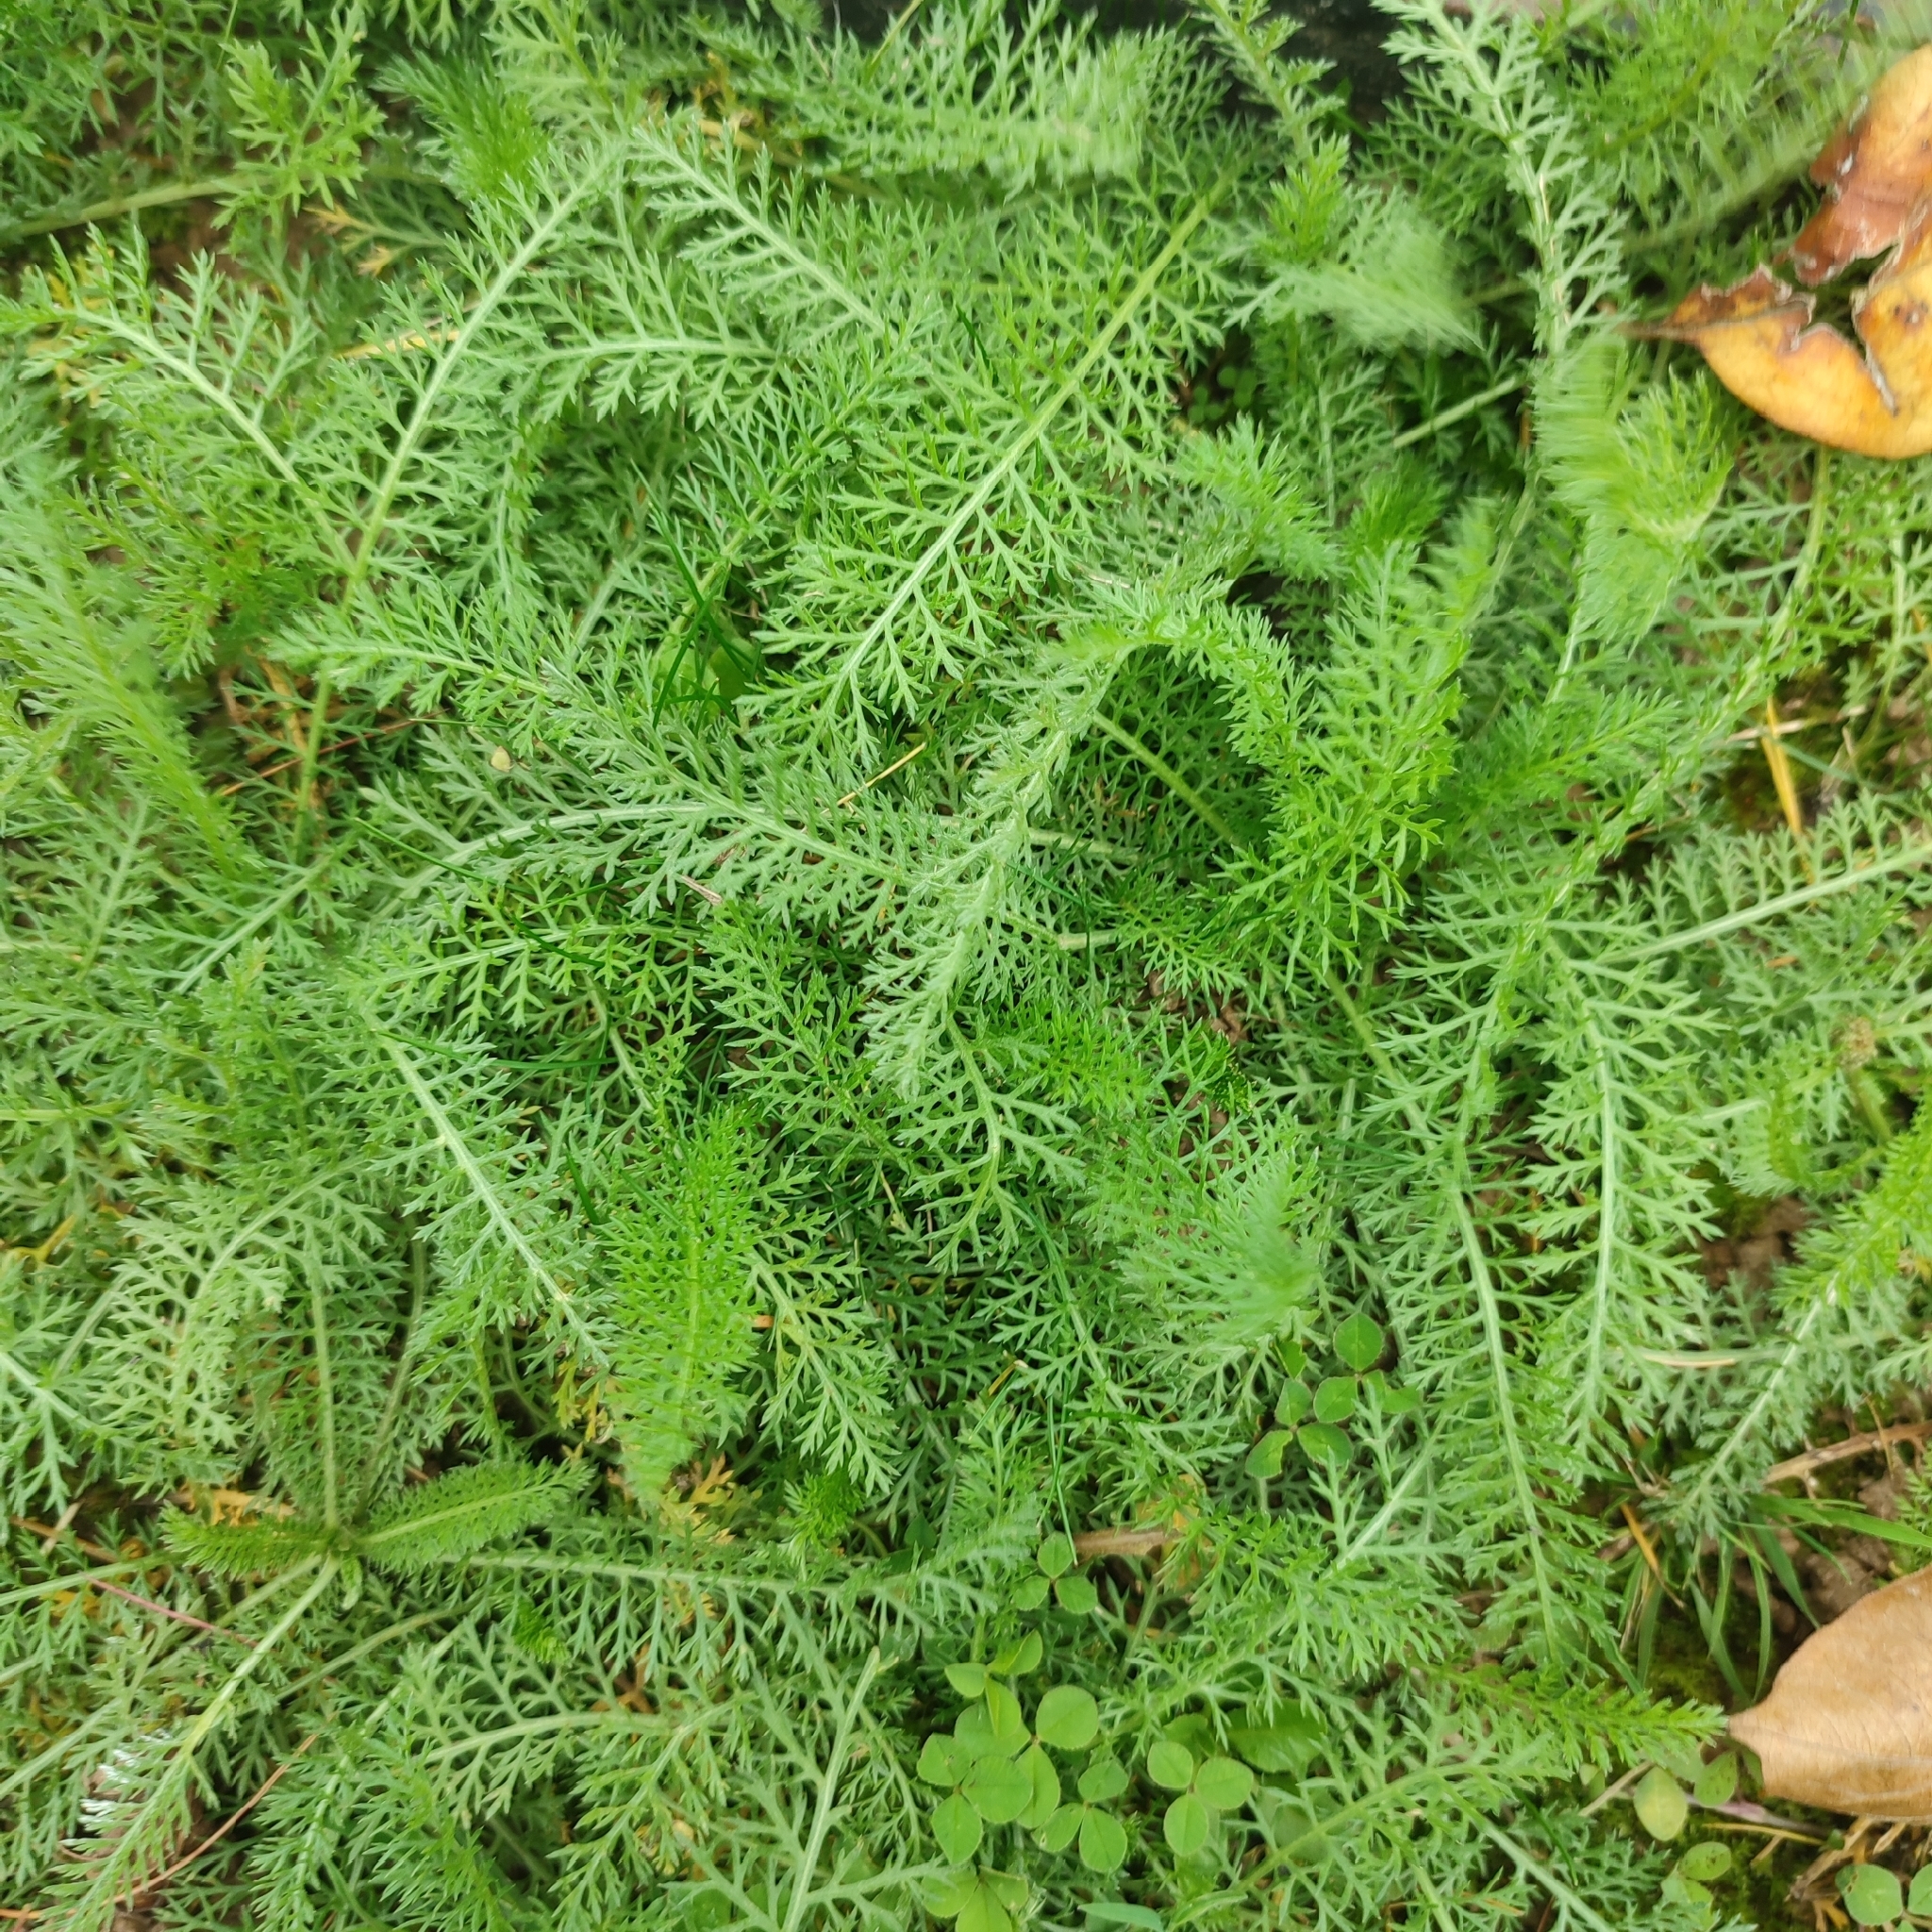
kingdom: Plantae
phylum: Tracheophyta
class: Magnoliopsida
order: Asterales
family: Asteraceae
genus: Achillea
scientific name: Achillea millefolium
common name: Yarrow
